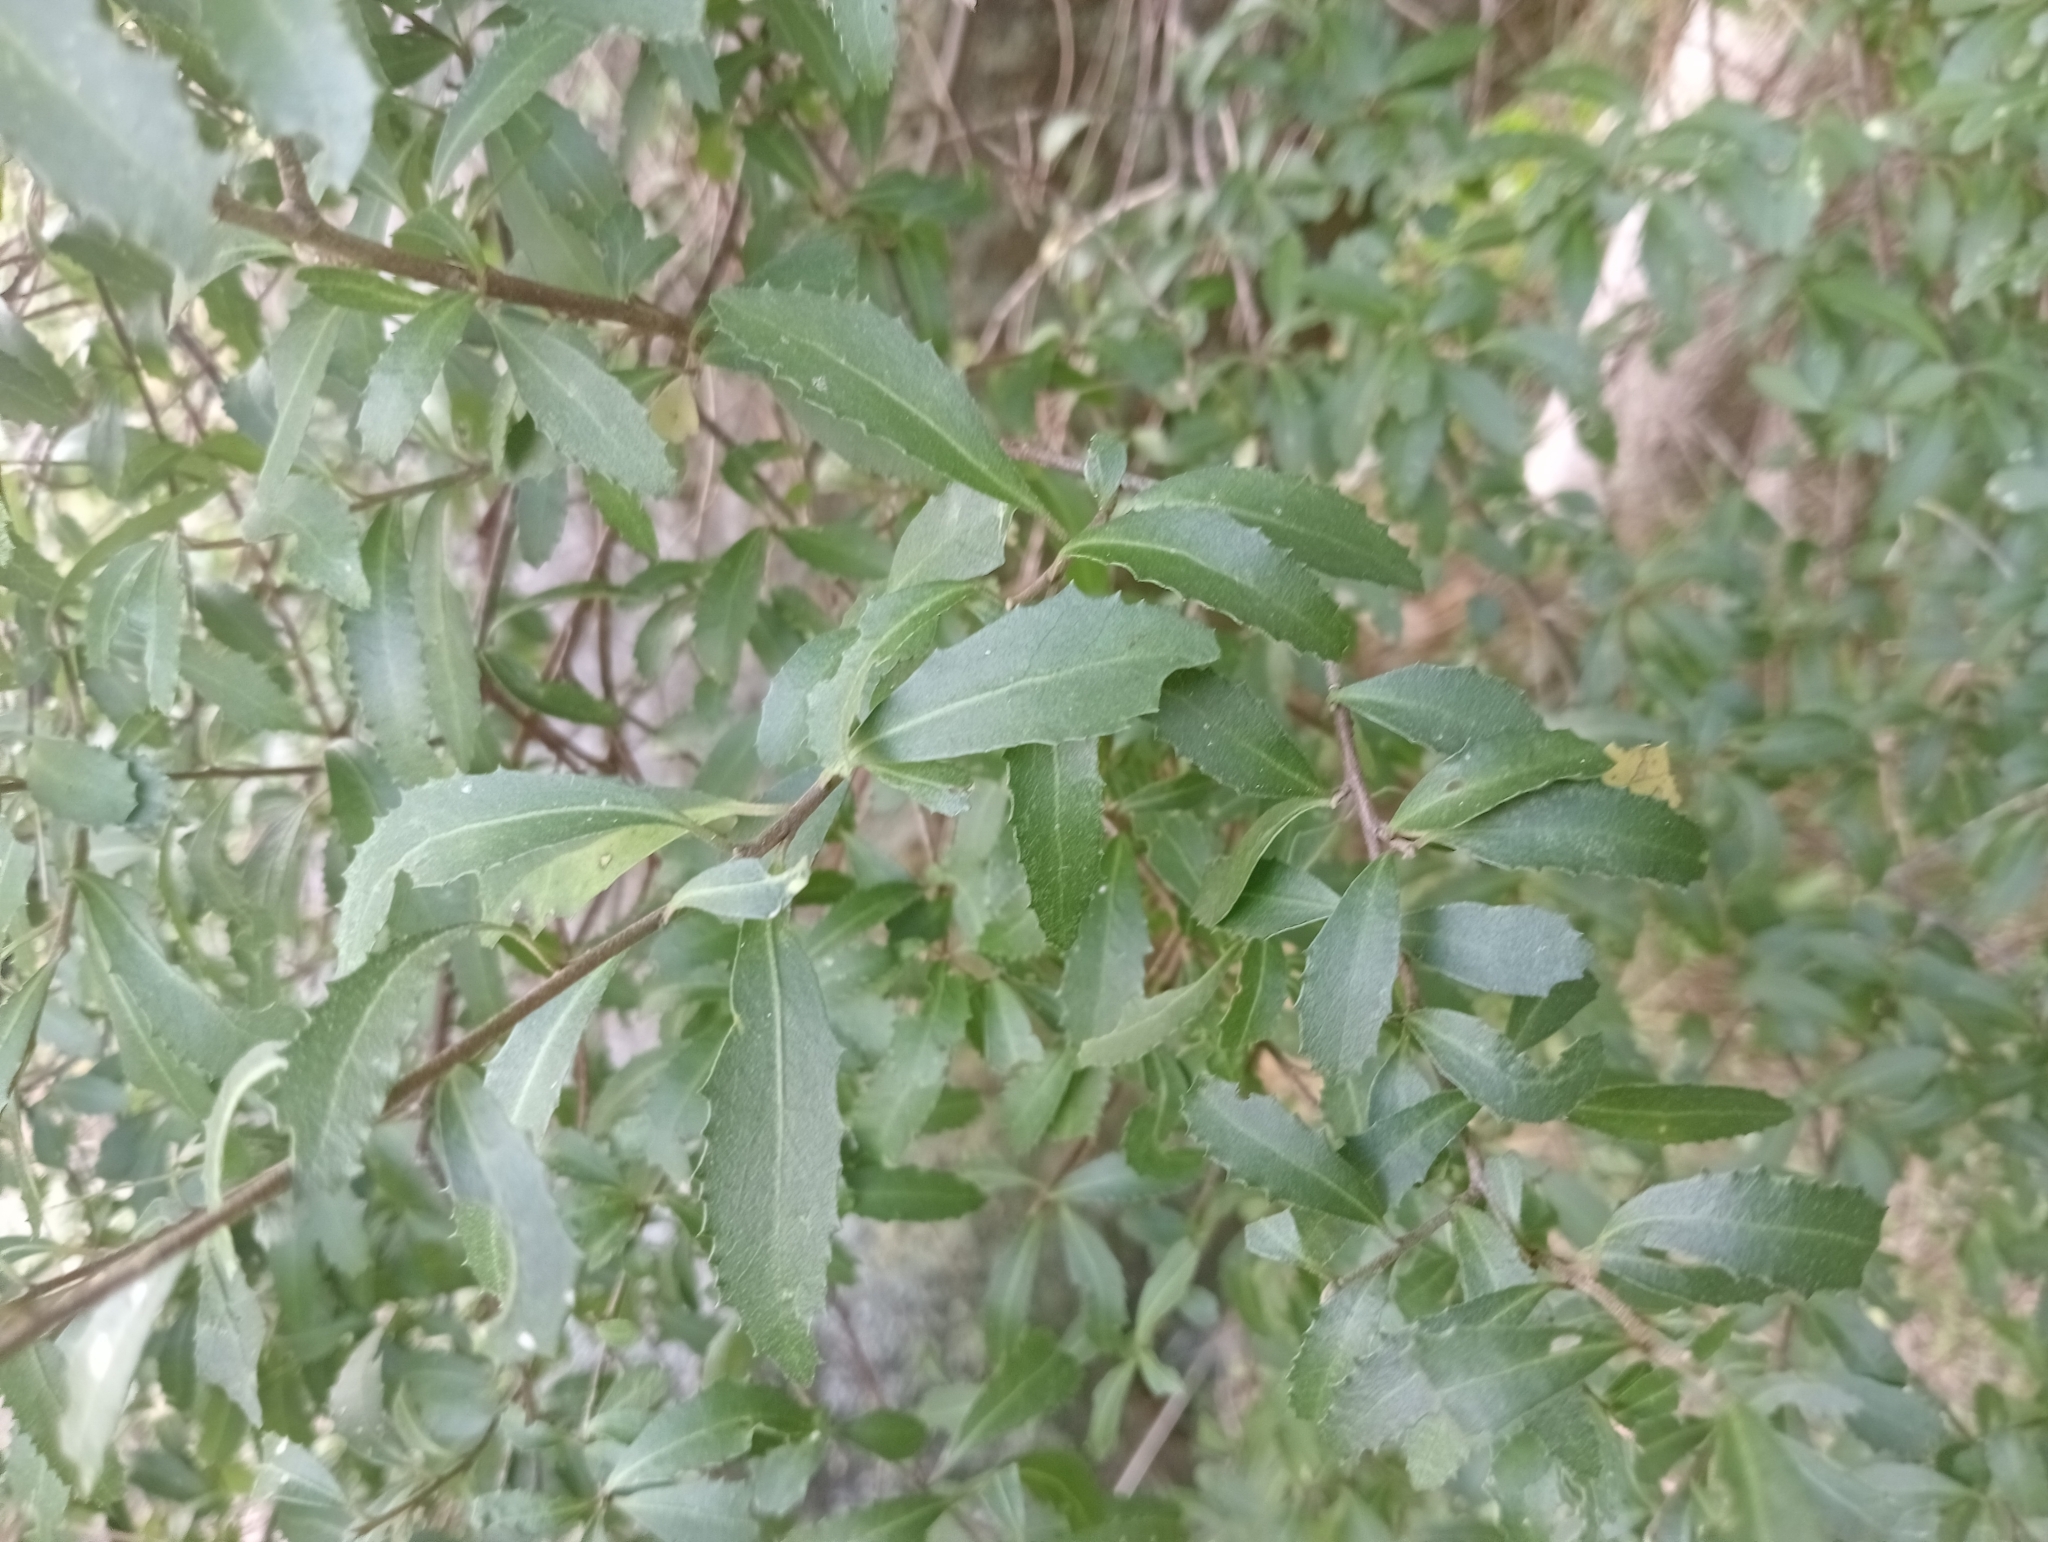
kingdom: Plantae
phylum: Tracheophyta
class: Magnoliopsida
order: Malvales
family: Malvaceae
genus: Hoheria
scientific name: Hoheria angustifolia
